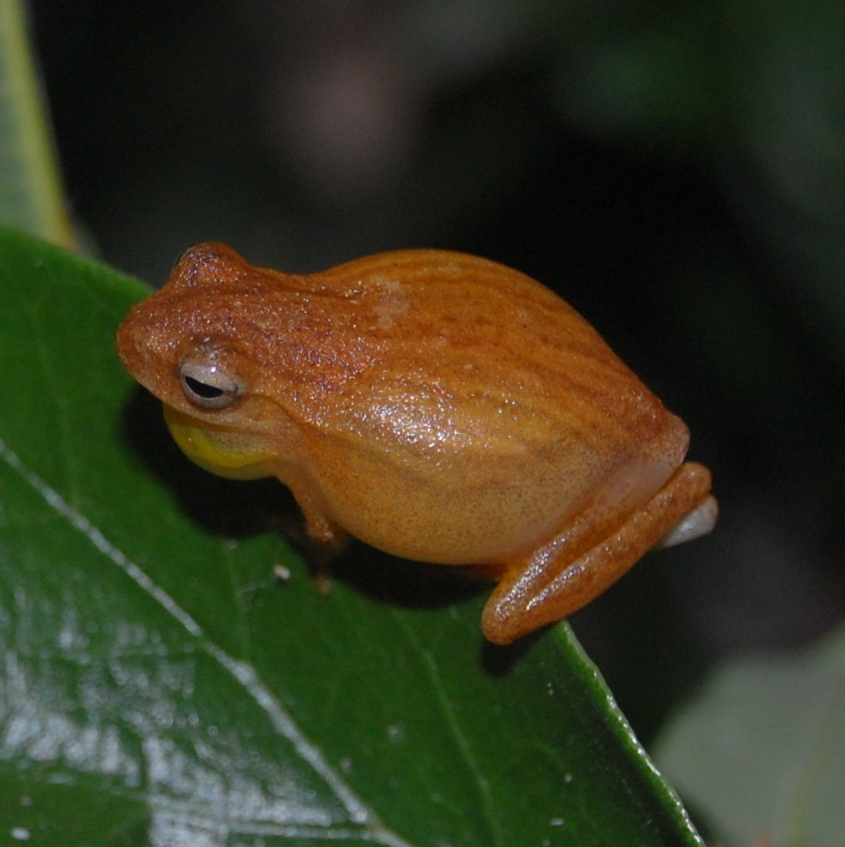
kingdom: Animalia
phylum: Chordata
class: Amphibia
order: Anura
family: Hylidae
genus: Dendropsophus
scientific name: Dendropsophus minutus
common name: Lesser treefrog
